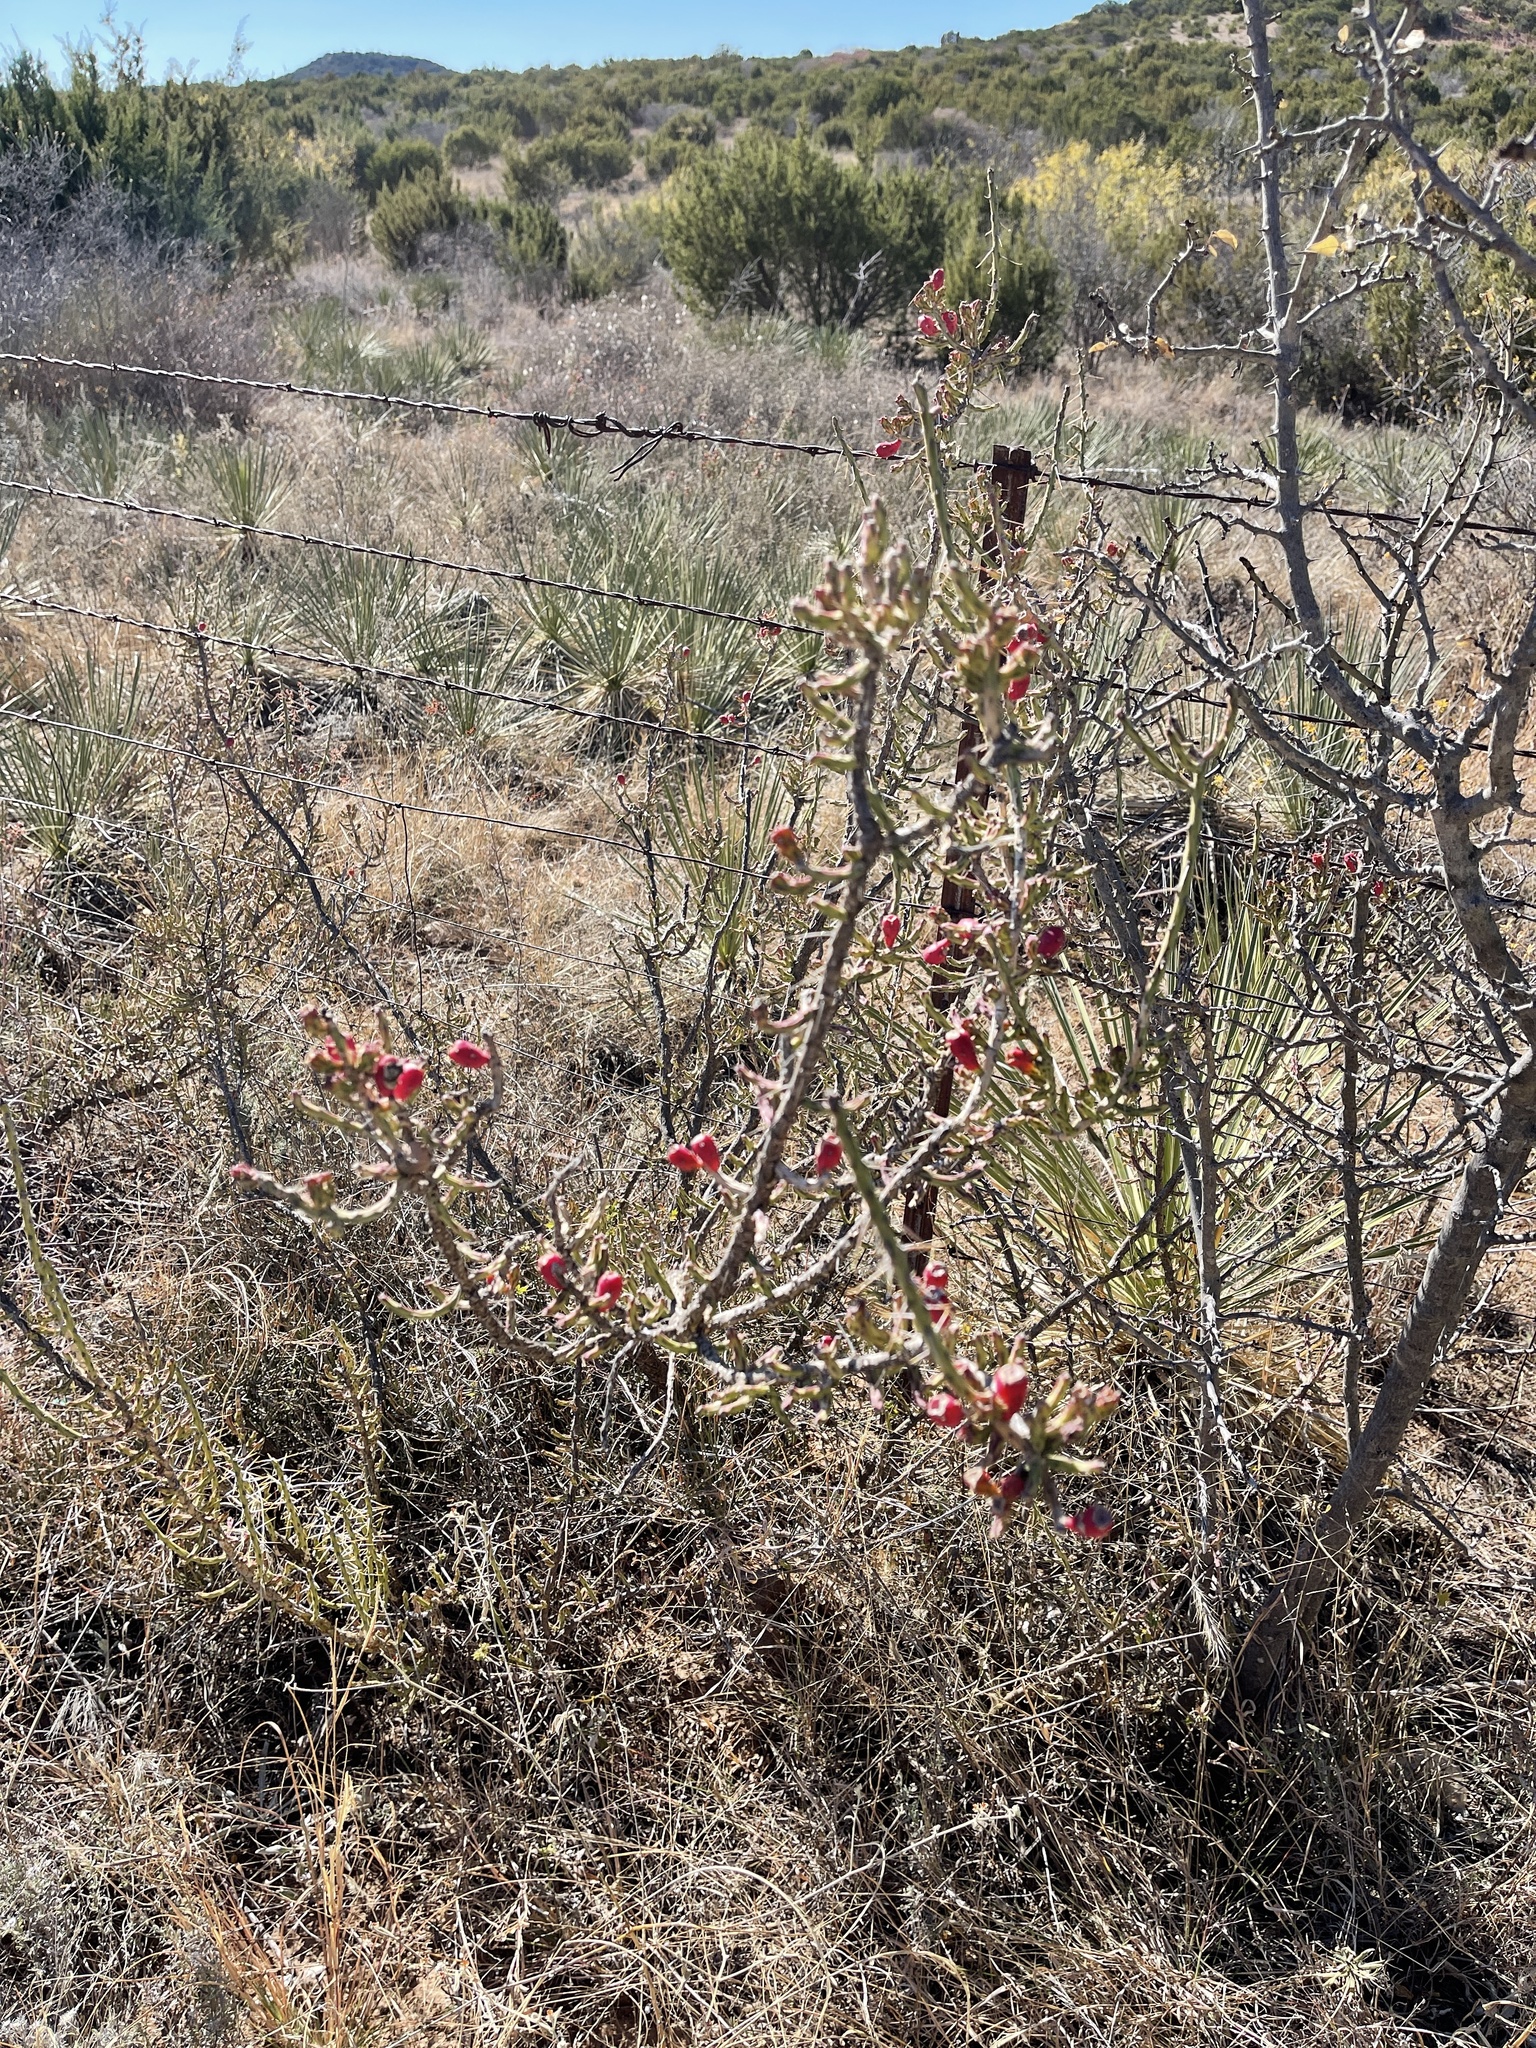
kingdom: Plantae
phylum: Tracheophyta
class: Magnoliopsida
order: Caryophyllales
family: Cactaceae
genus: Cylindropuntia
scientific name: Cylindropuntia leptocaulis
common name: Christmas cactus
